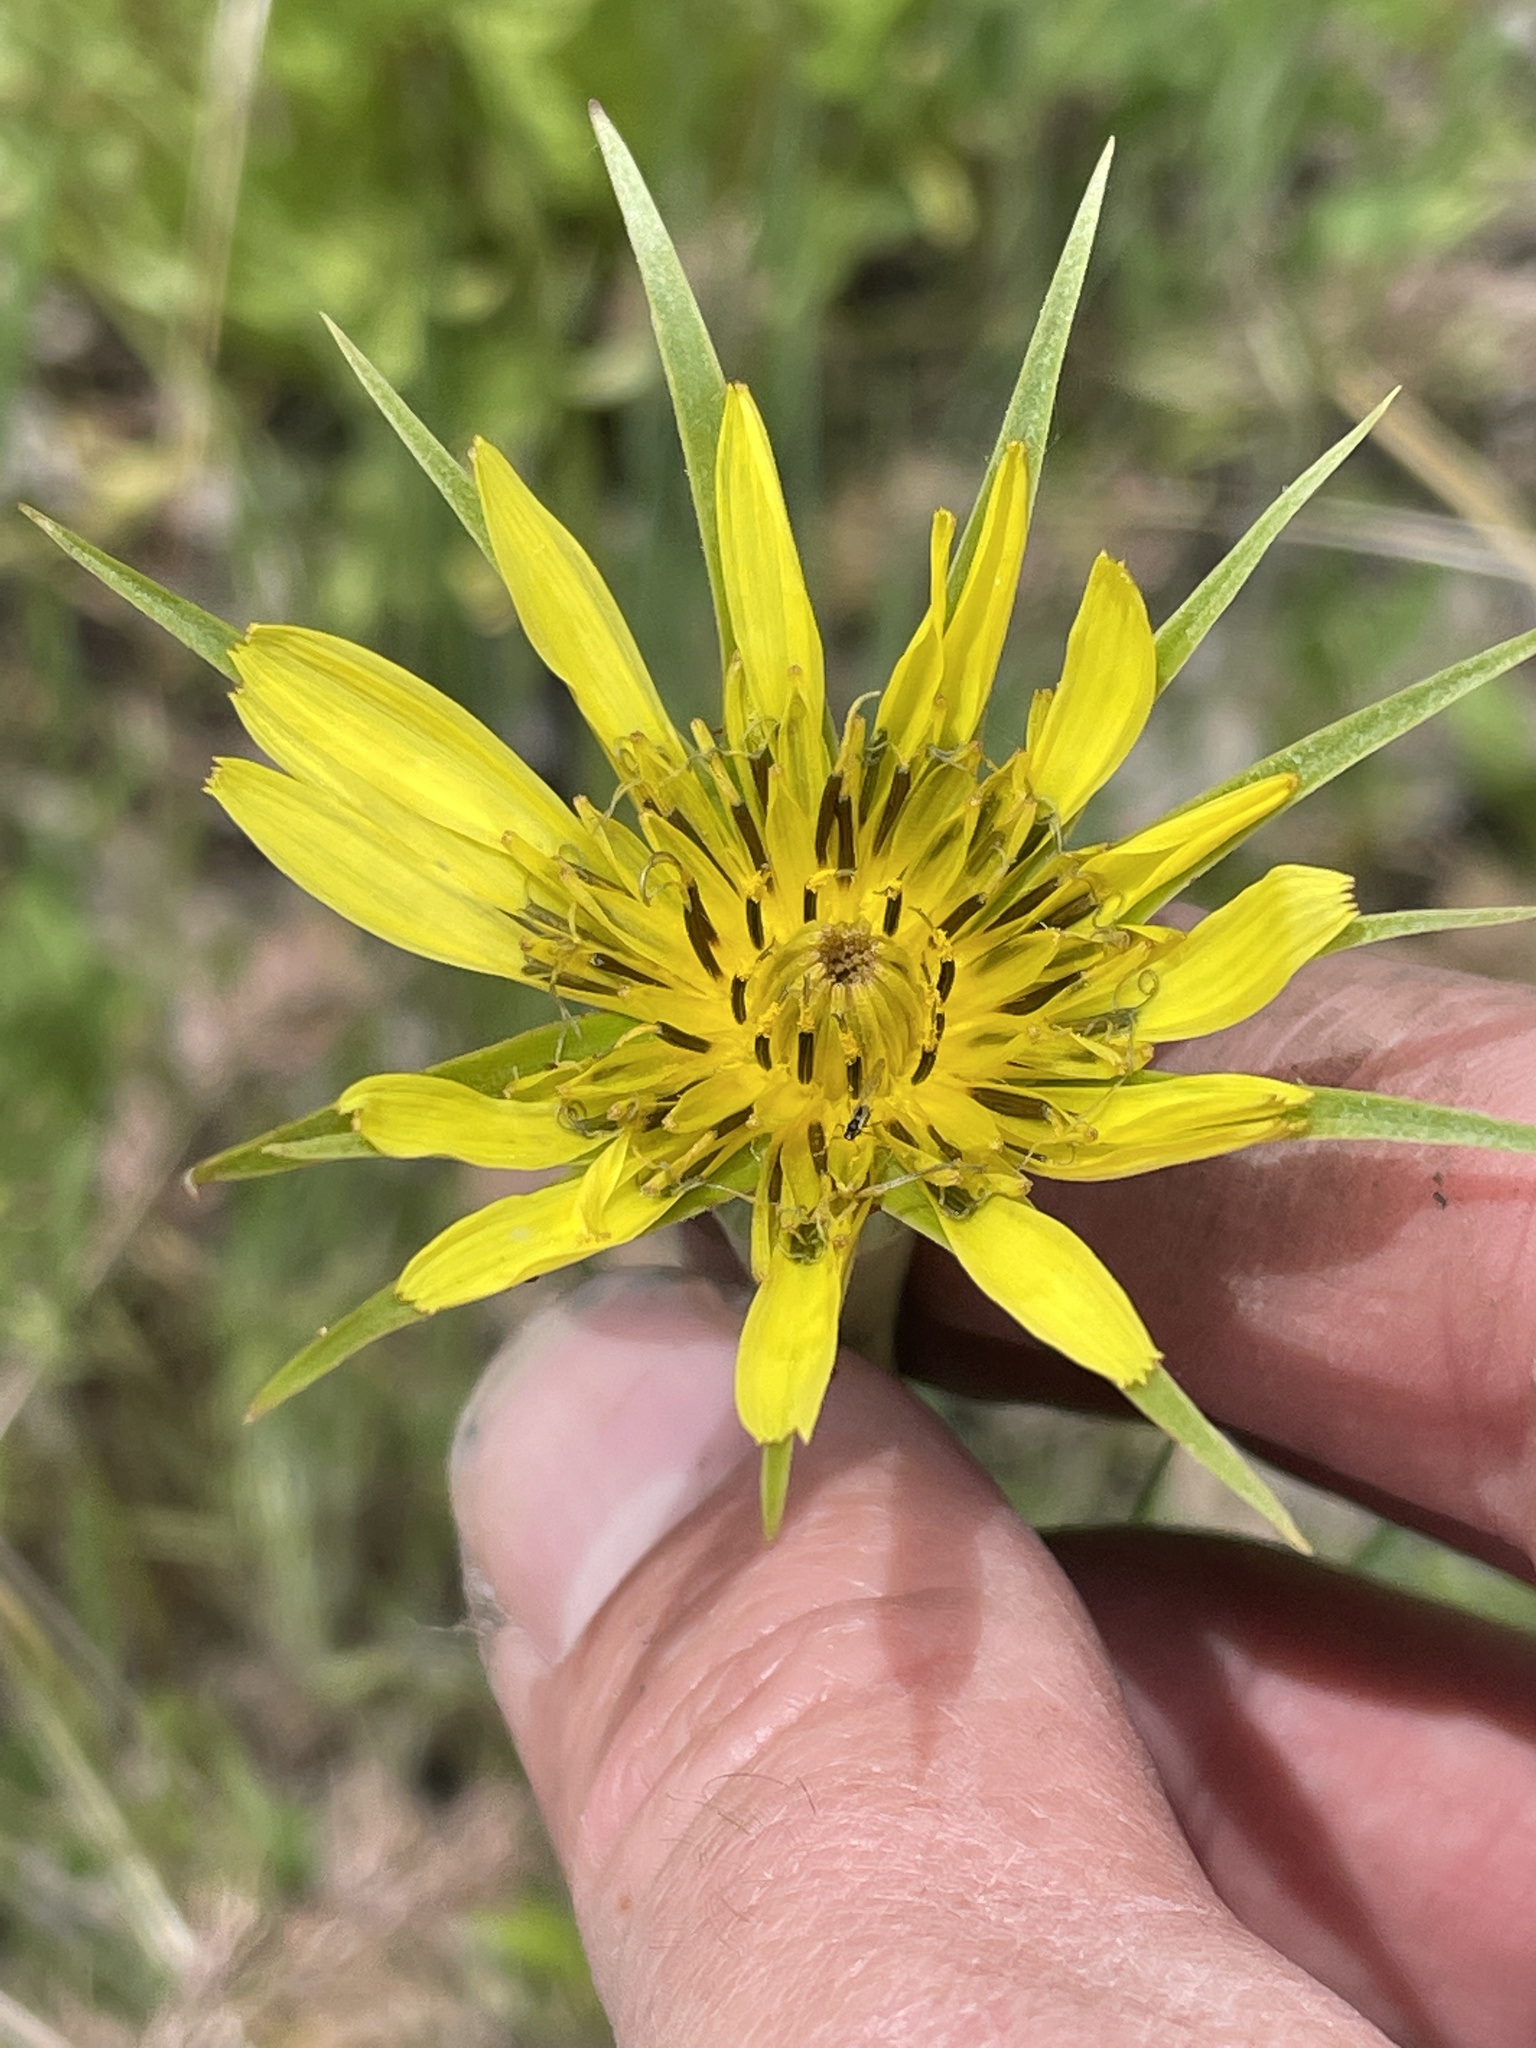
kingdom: Plantae
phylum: Tracheophyta
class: Magnoliopsida
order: Asterales
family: Asteraceae
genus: Tragopogon
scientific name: Tragopogon dubius
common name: Yellow salsify
